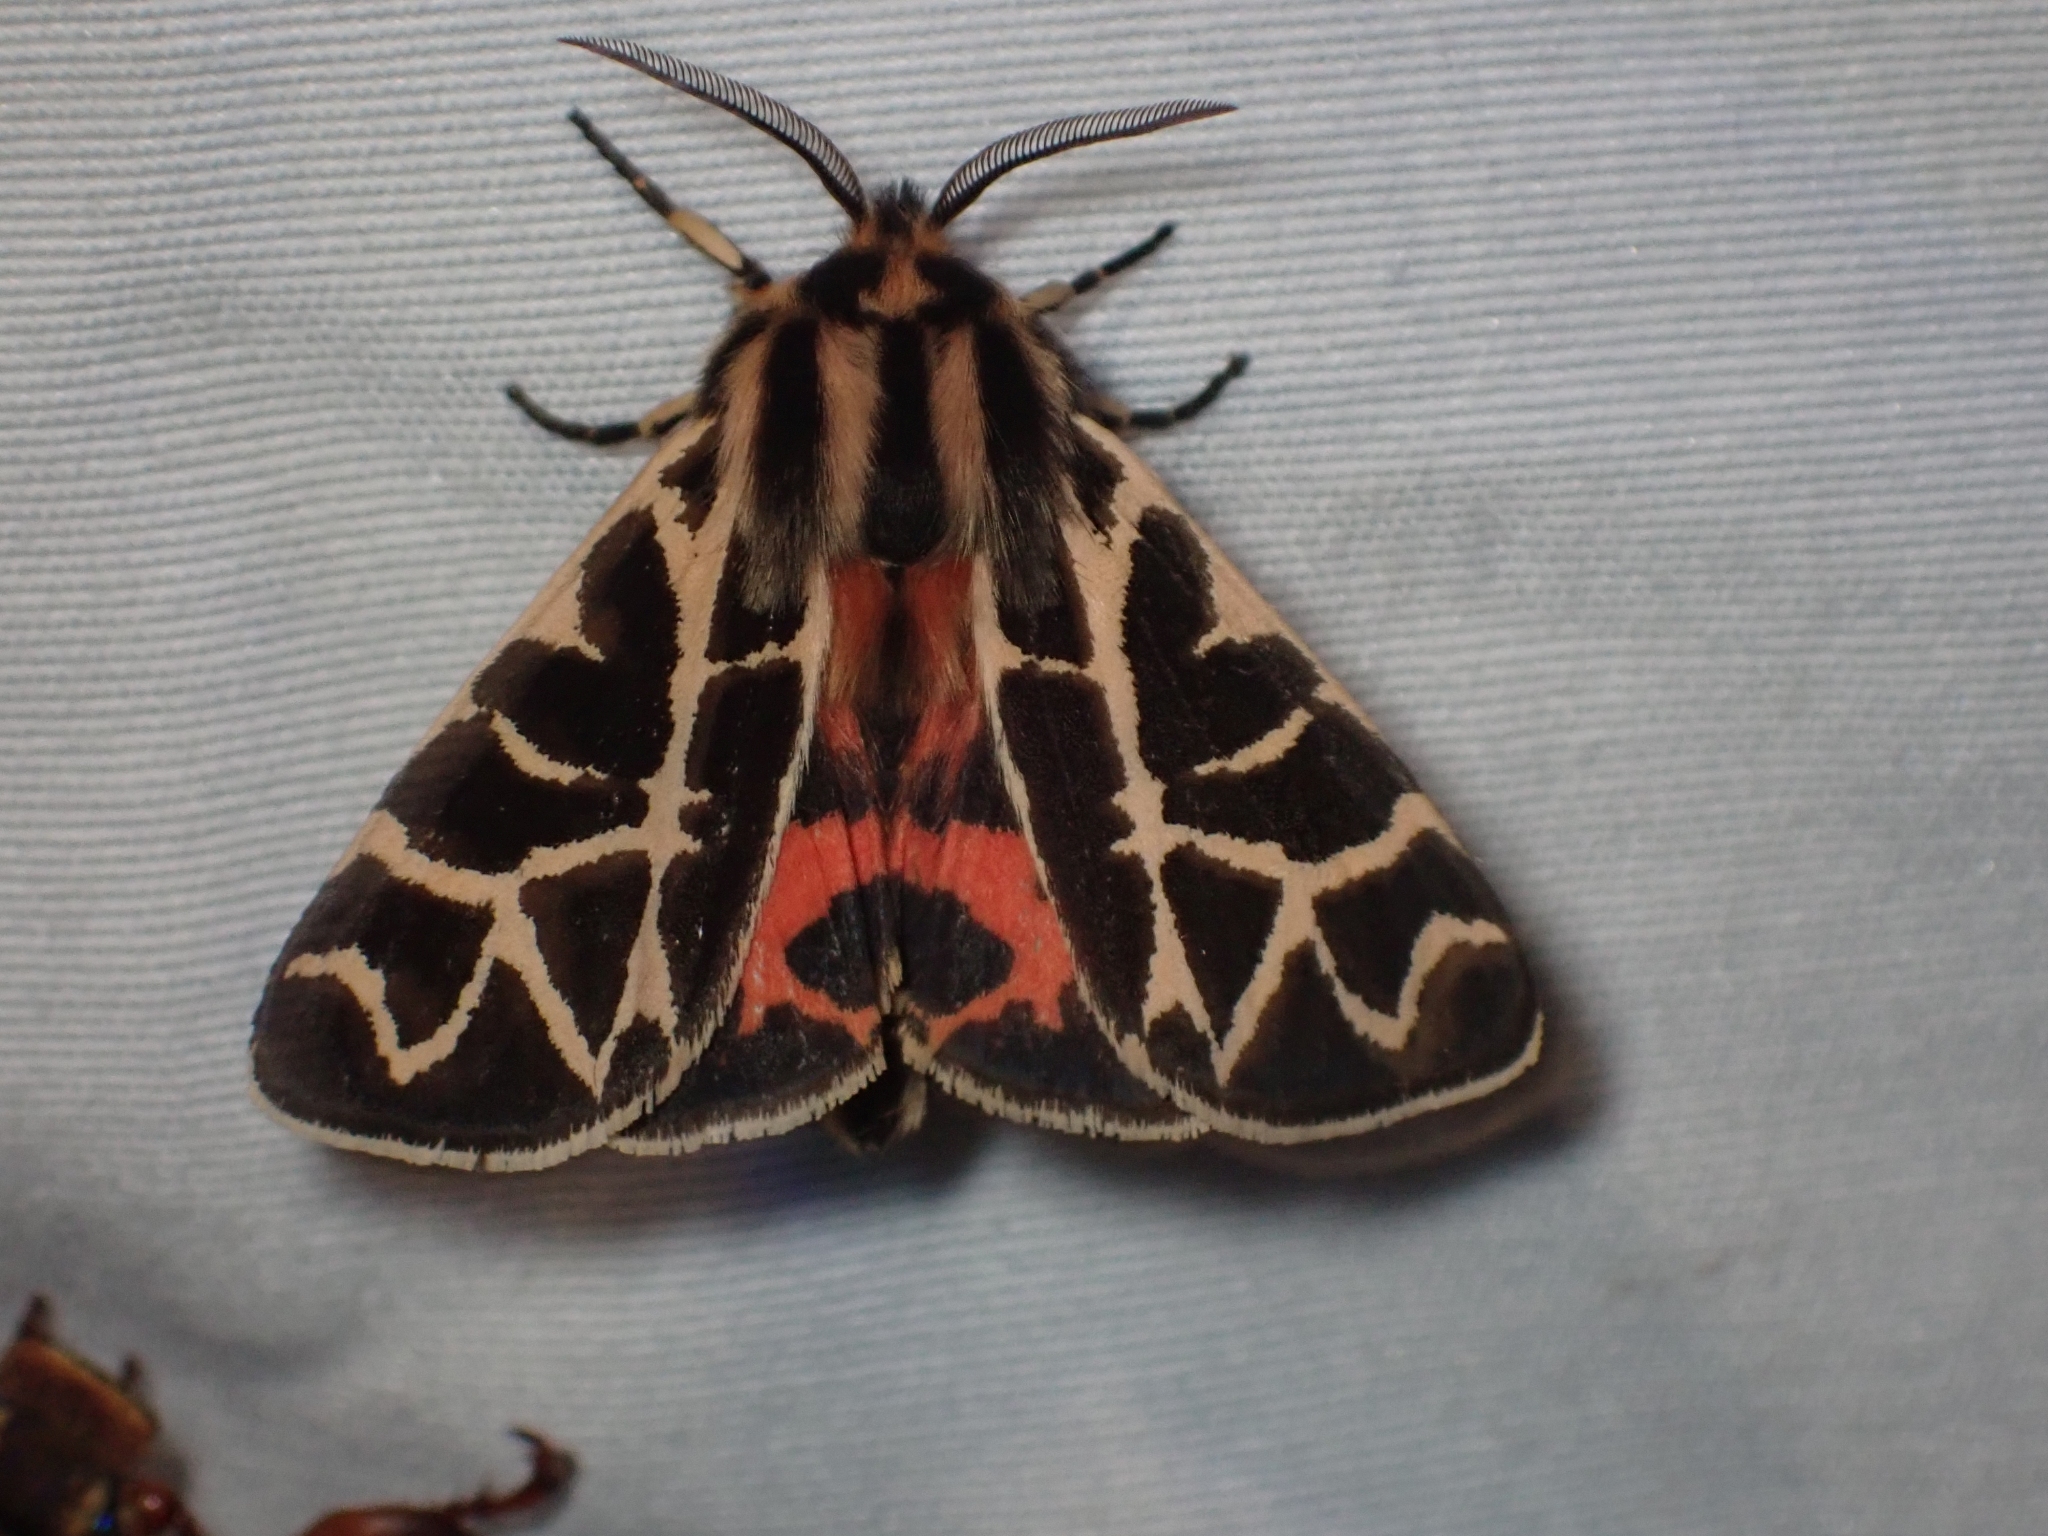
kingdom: Animalia
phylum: Arthropoda
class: Insecta
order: Lepidoptera
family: Erebidae
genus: Apantesis
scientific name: Apantesis
